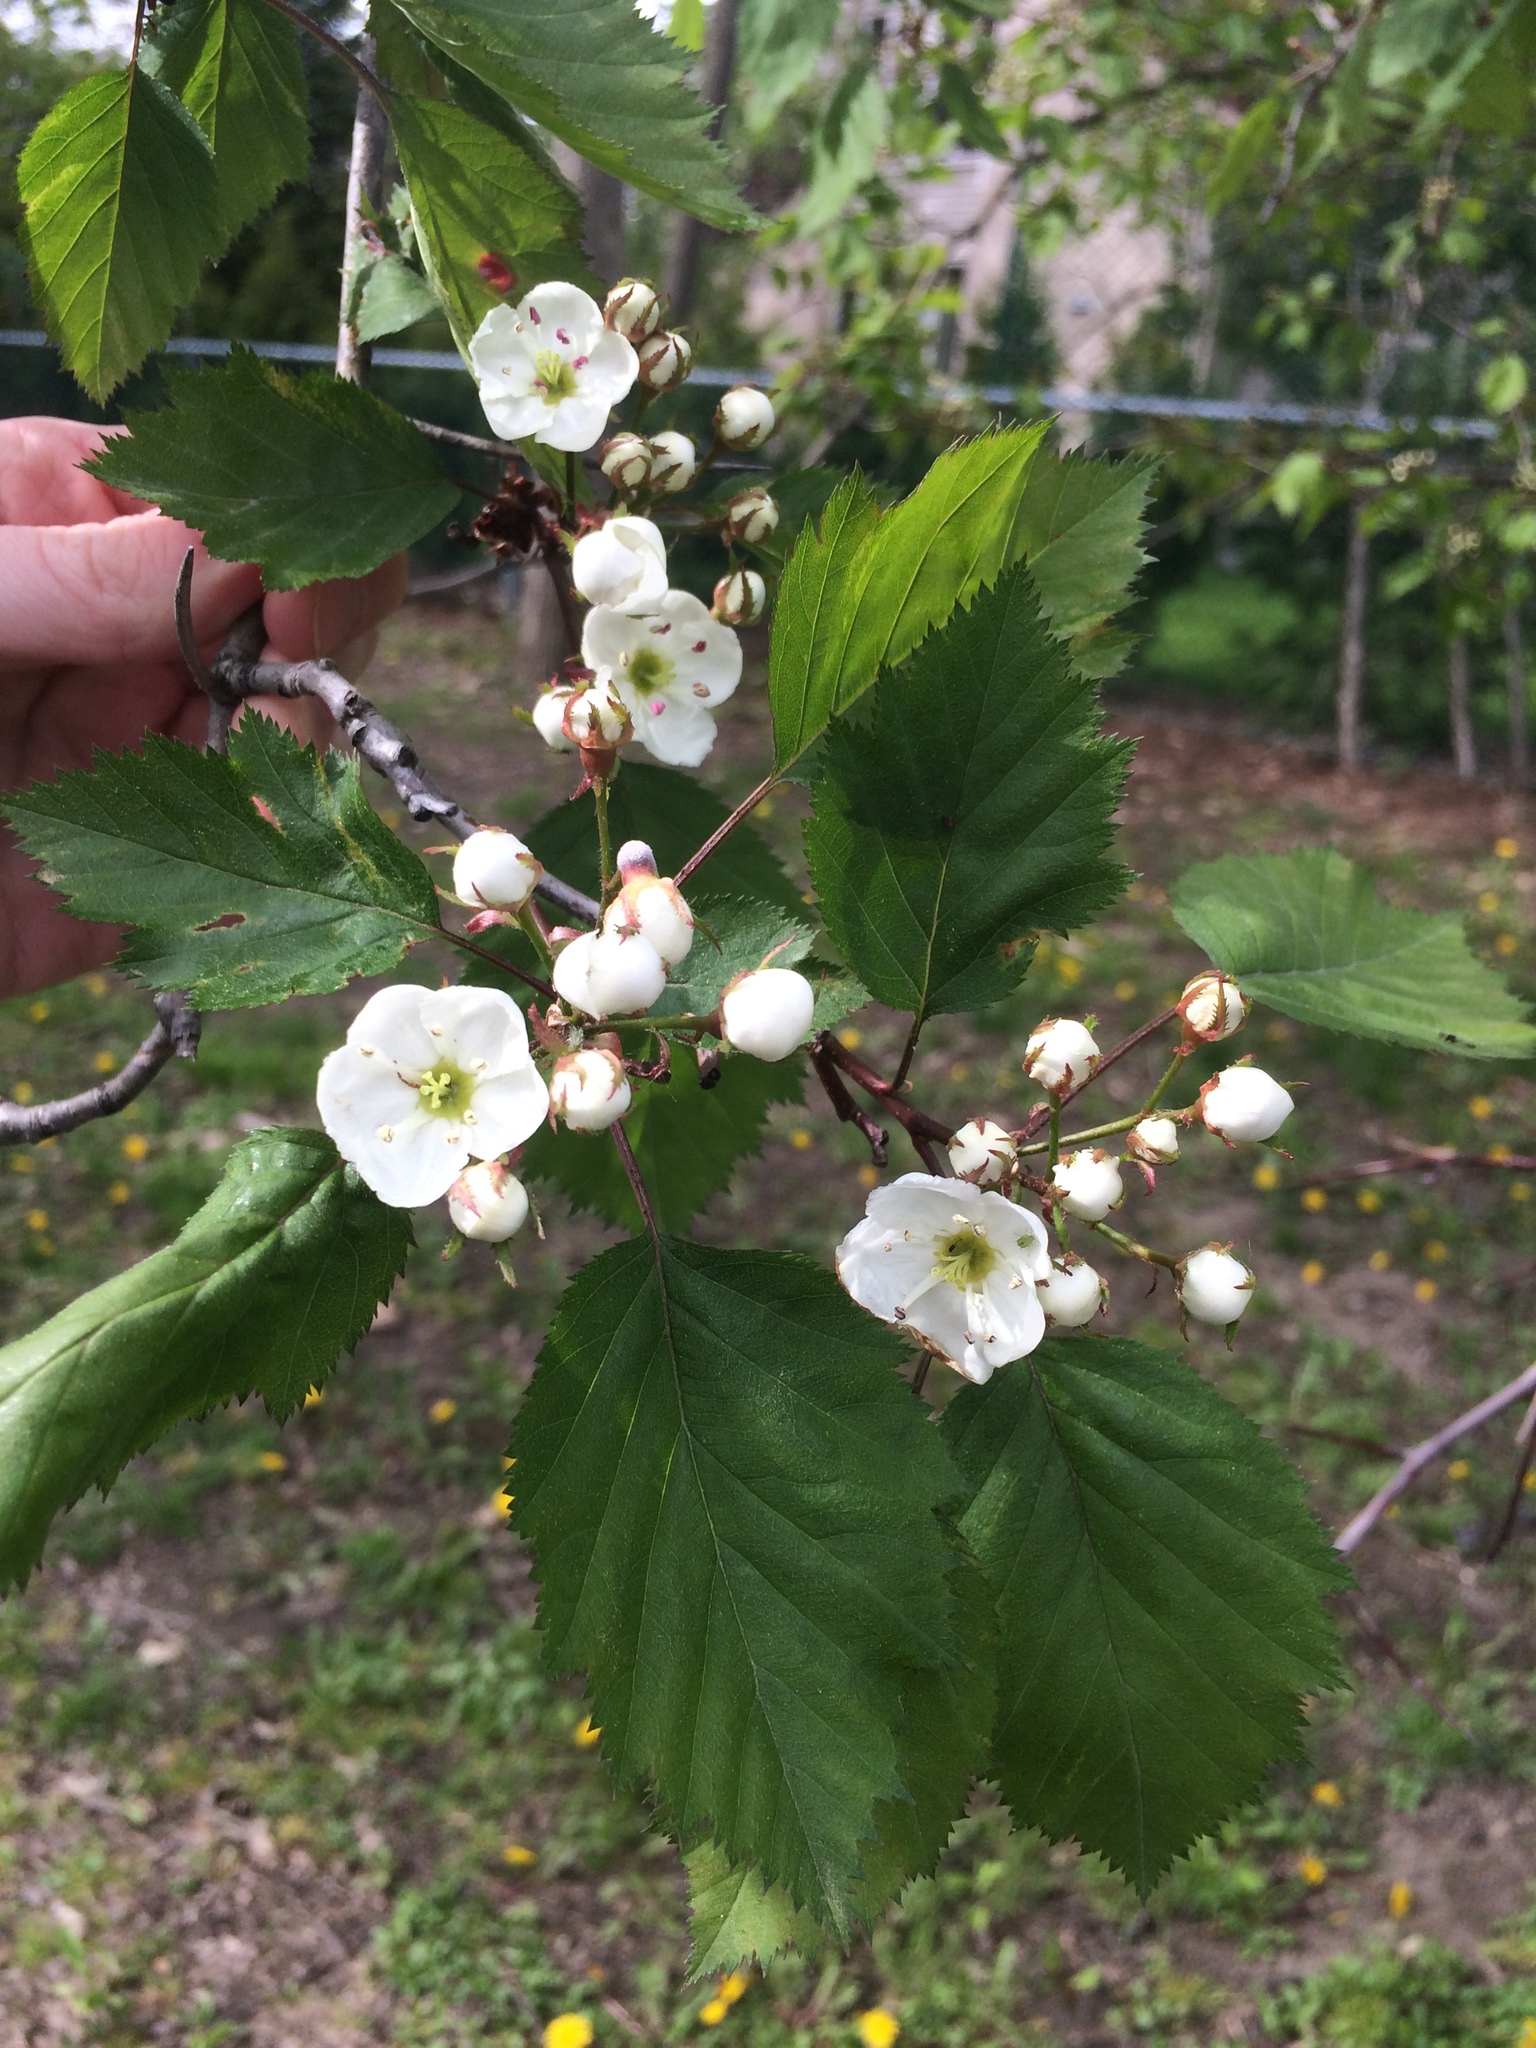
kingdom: Plantae
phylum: Tracheophyta
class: Magnoliopsida
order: Rosales
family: Rosaceae
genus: Crataegus
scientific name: Crataegus holmesiana
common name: Holmes' hawthorn
